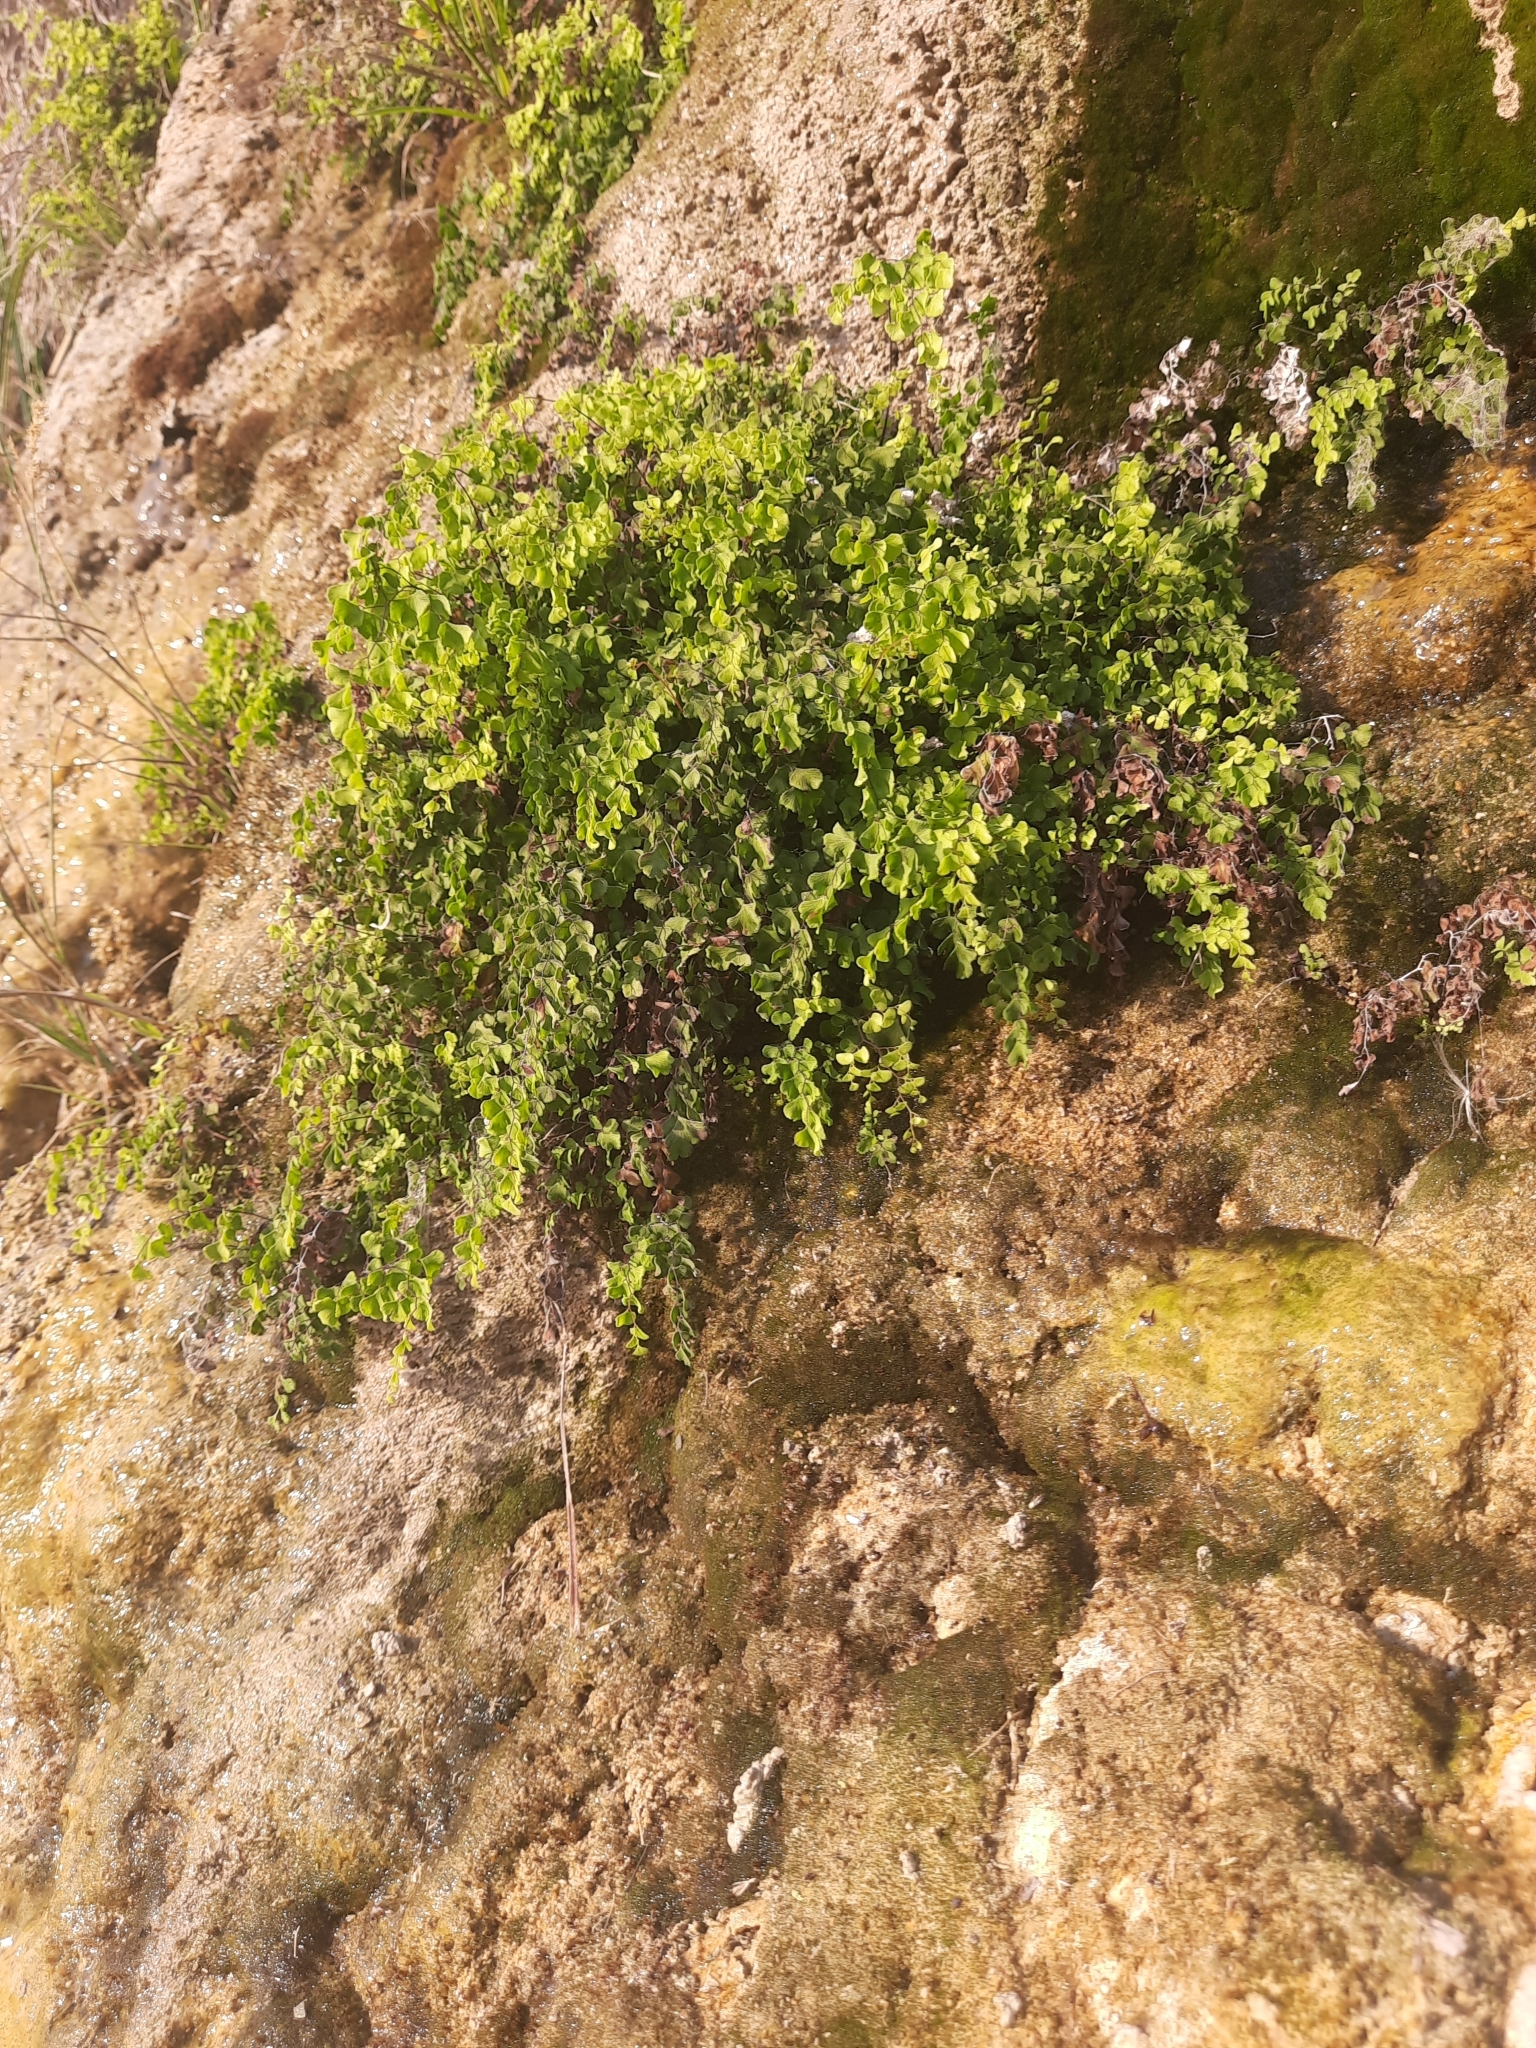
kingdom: Plantae
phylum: Tracheophyta
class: Polypodiopsida
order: Polypodiales
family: Pteridaceae
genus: Adiantum
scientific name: Adiantum capillus-veneris
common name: Maidenhair fern
